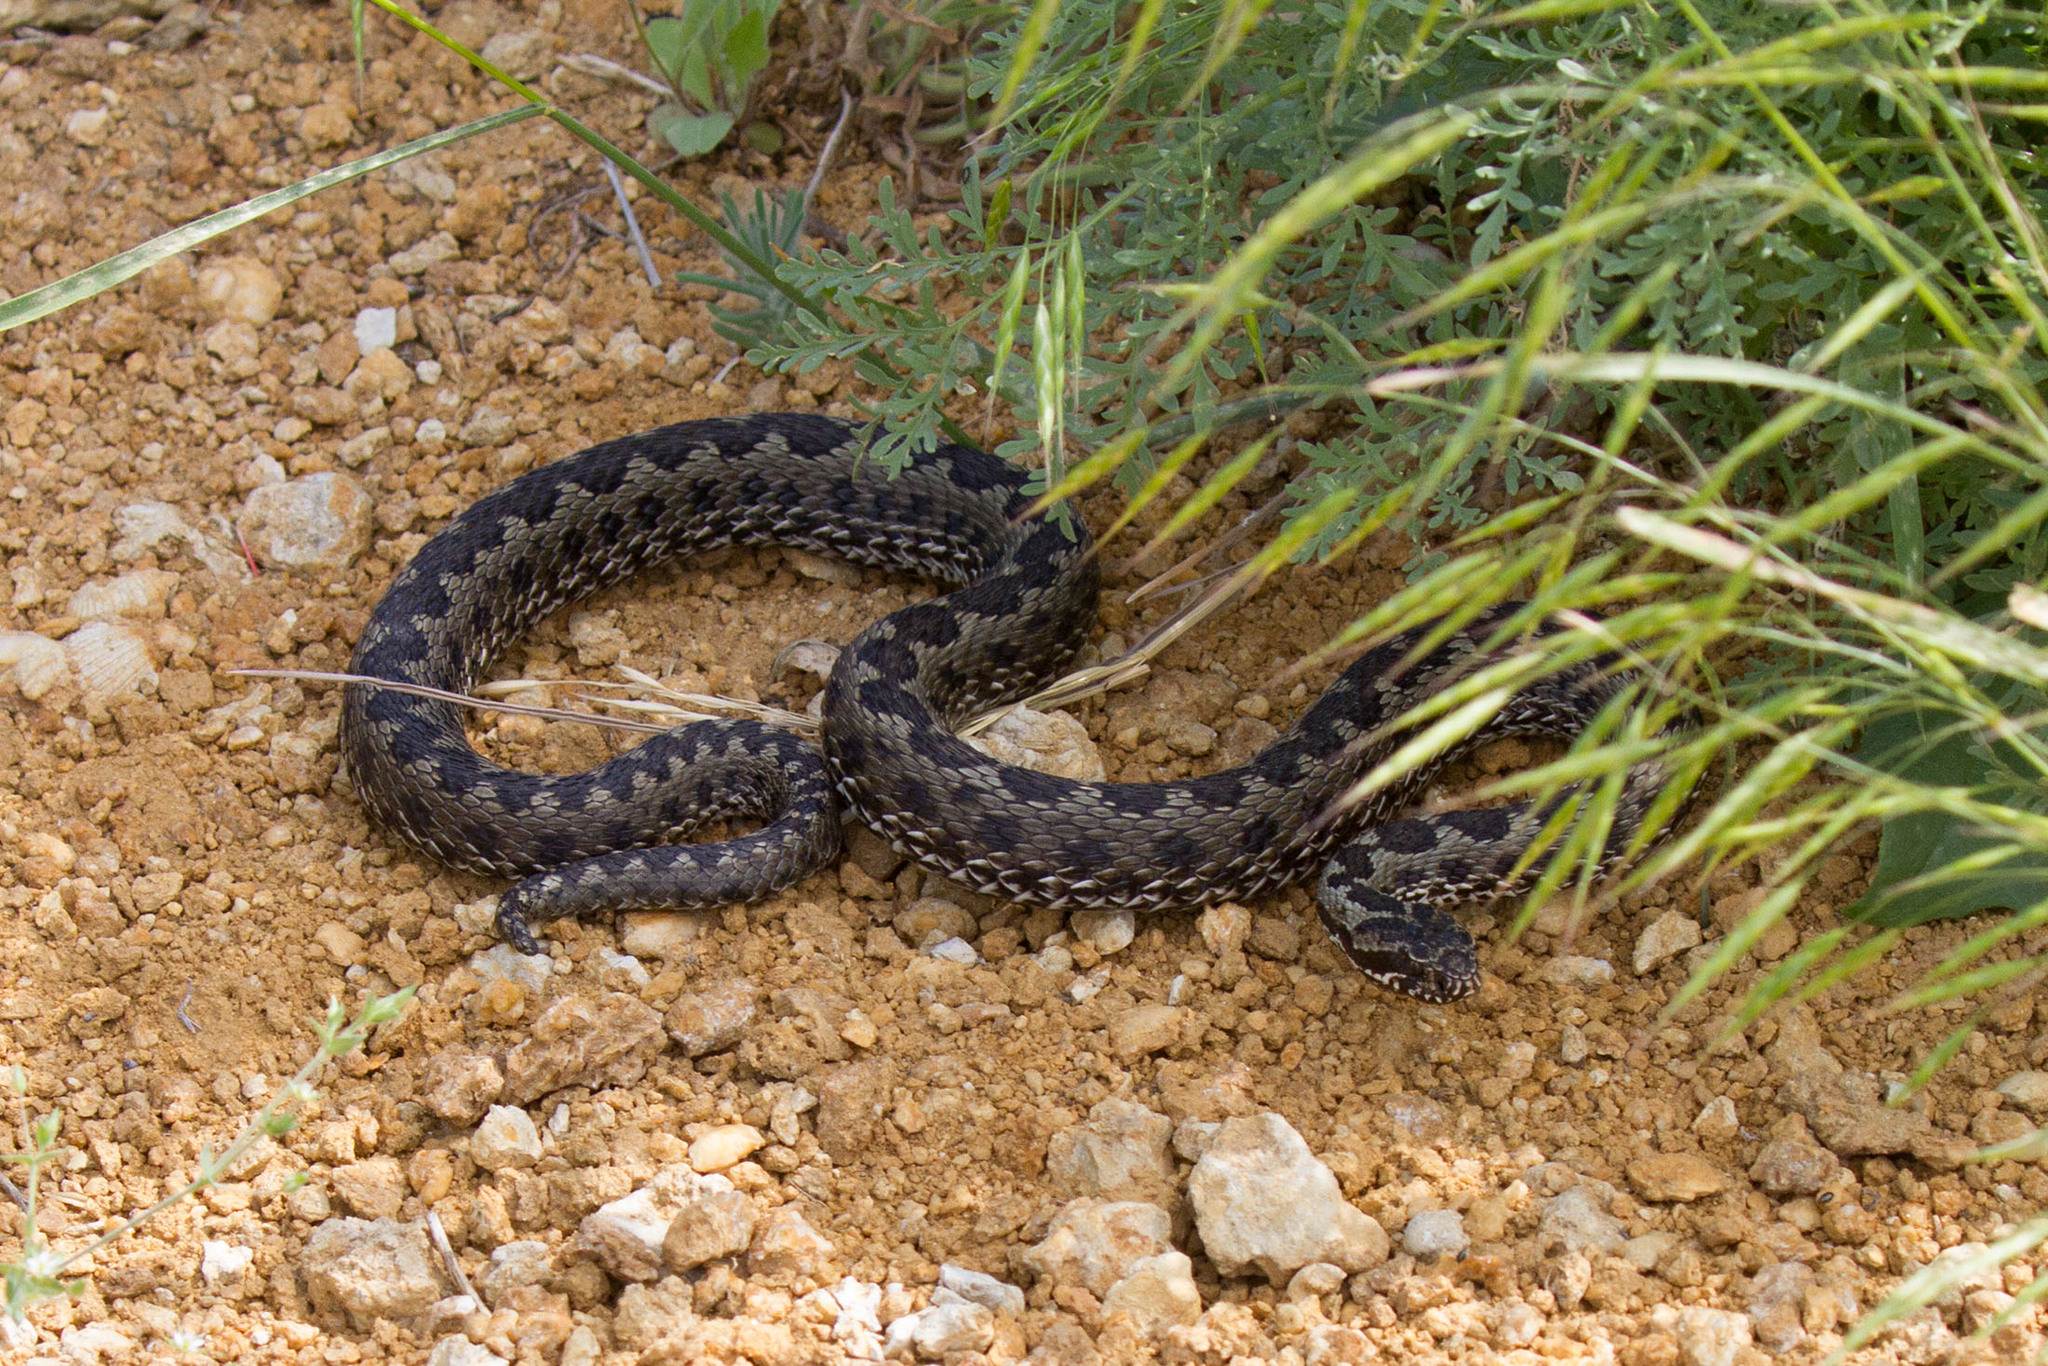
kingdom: Animalia
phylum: Chordata
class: Squamata
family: Viperidae
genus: Vipera
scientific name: Vipera renardi
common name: Eastern steppe viper
